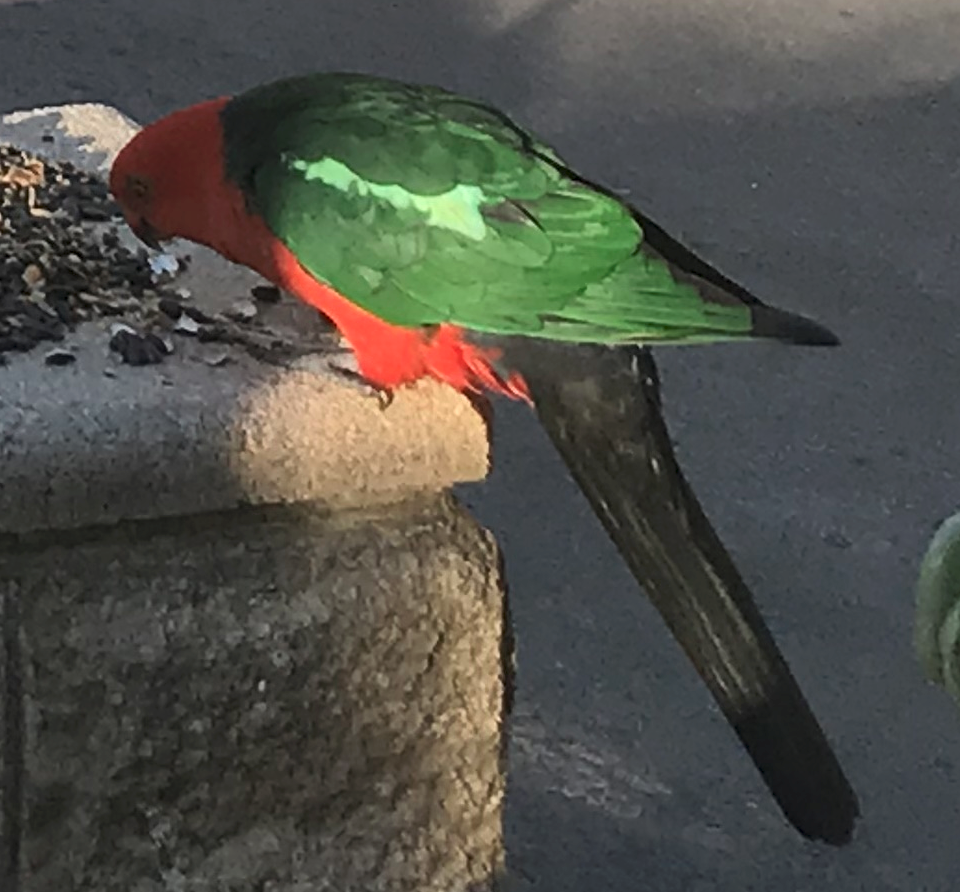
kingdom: Animalia
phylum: Chordata
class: Aves
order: Psittaciformes
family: Psittacidae
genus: Alisterus
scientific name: Alisterus scapularis
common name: Australian king parrot
